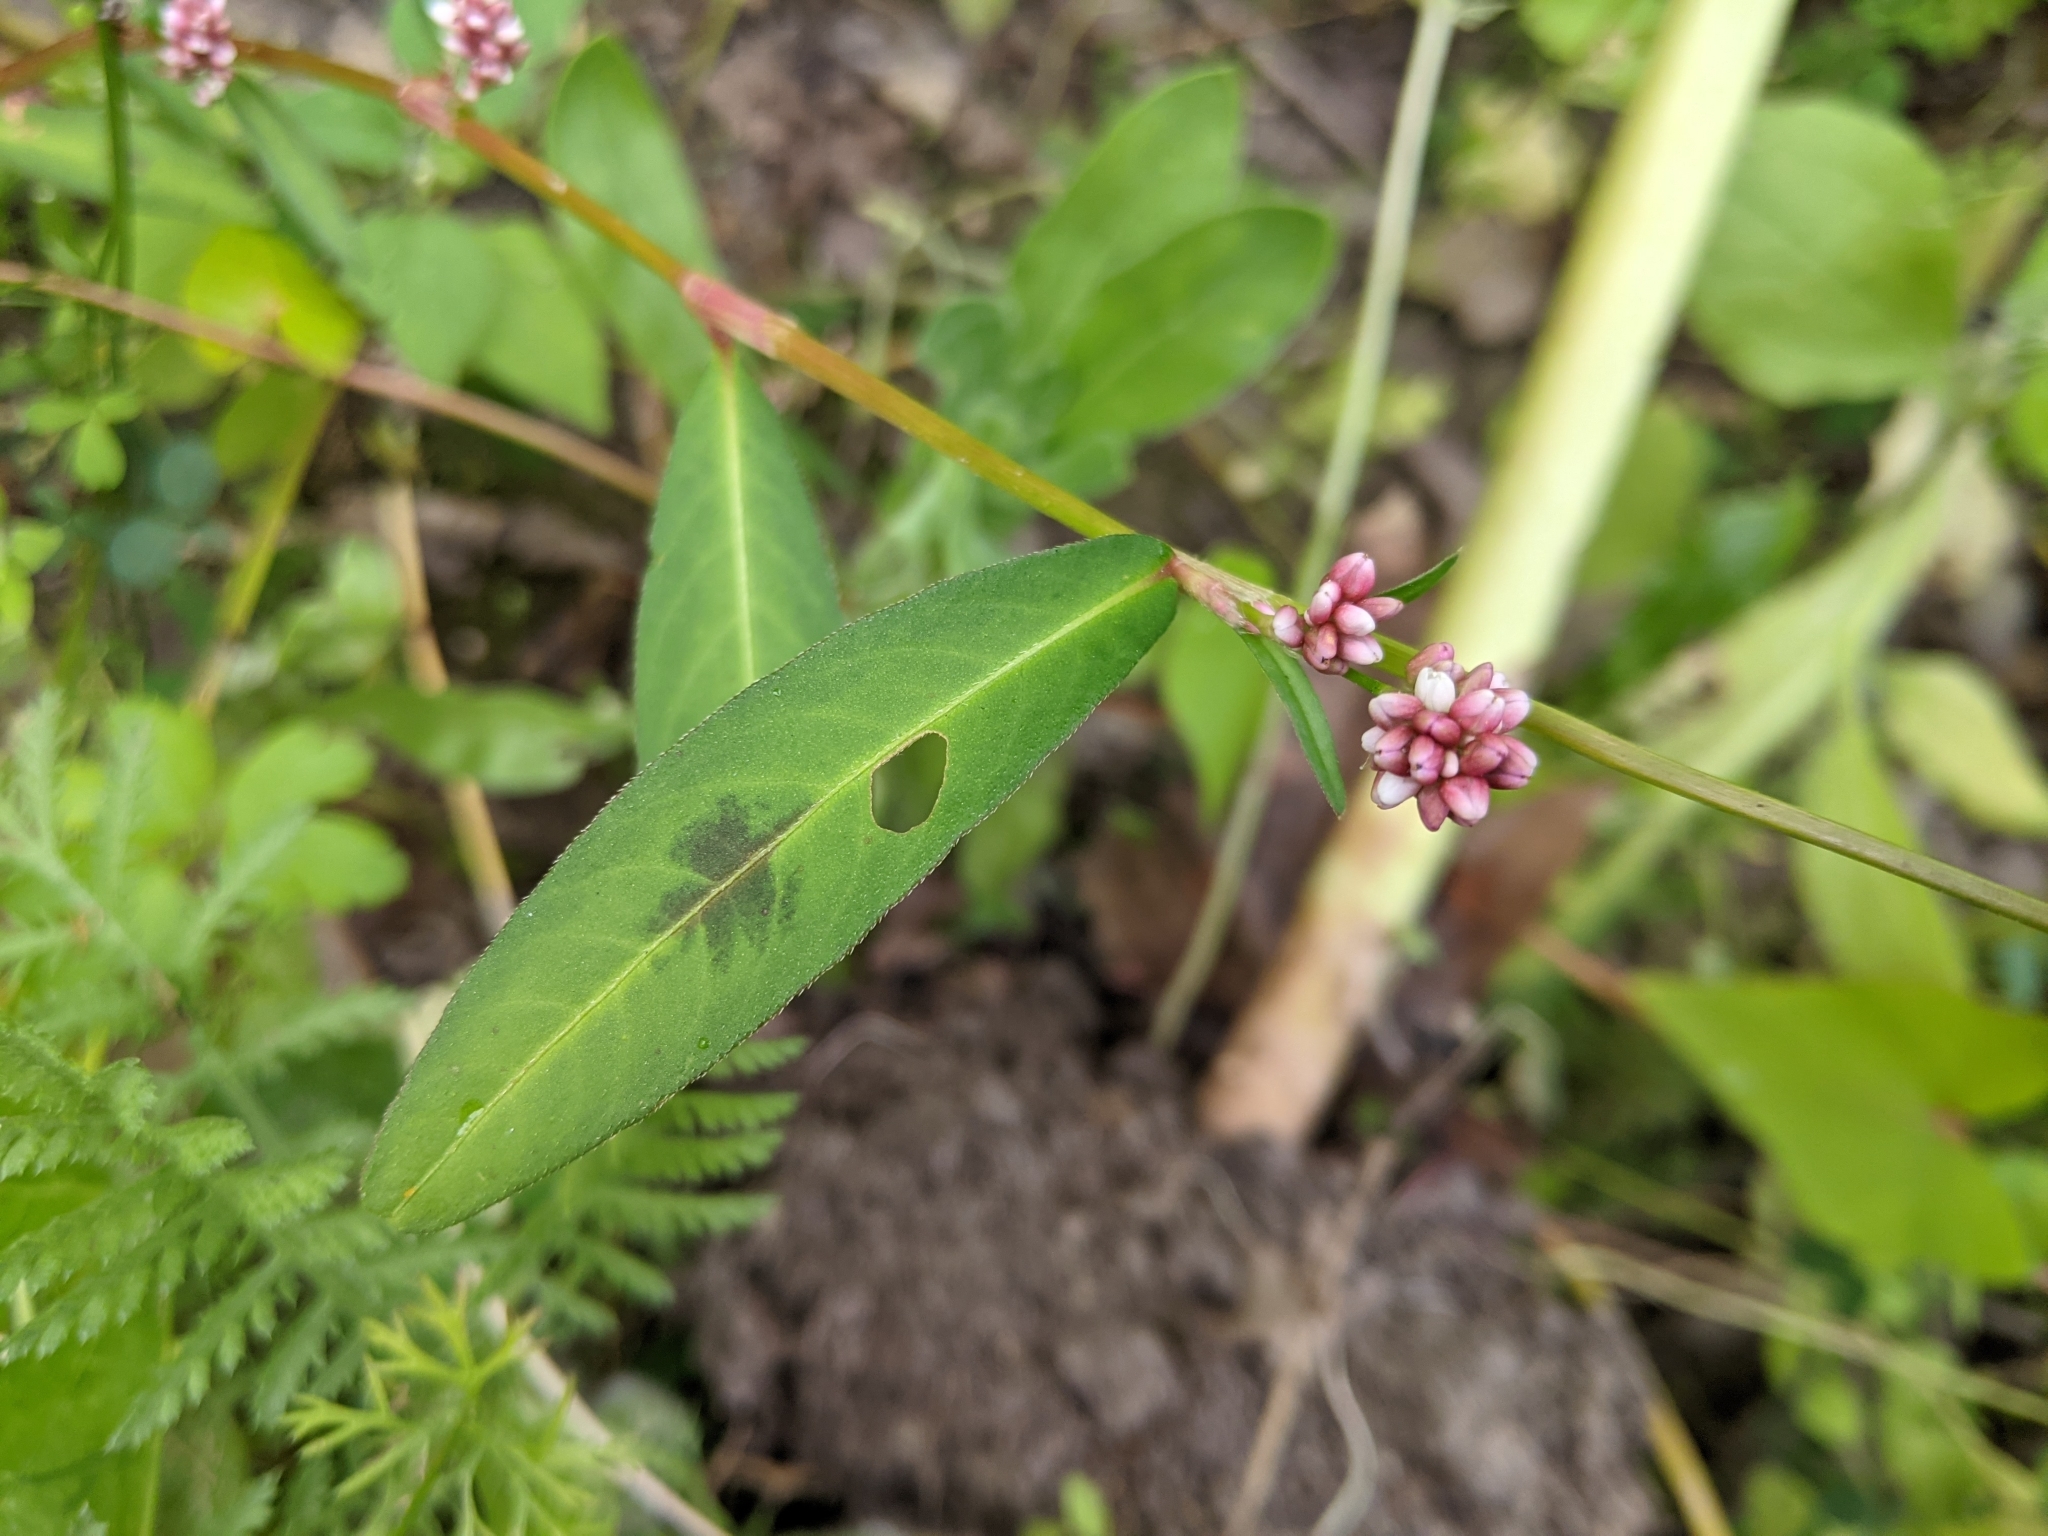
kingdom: Plantae
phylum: Tracheophyta
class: Magnoliopsida
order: Caryophyllales
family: Polygonaceae
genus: Persicaria
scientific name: Persicaria maculosa
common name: Redshank
